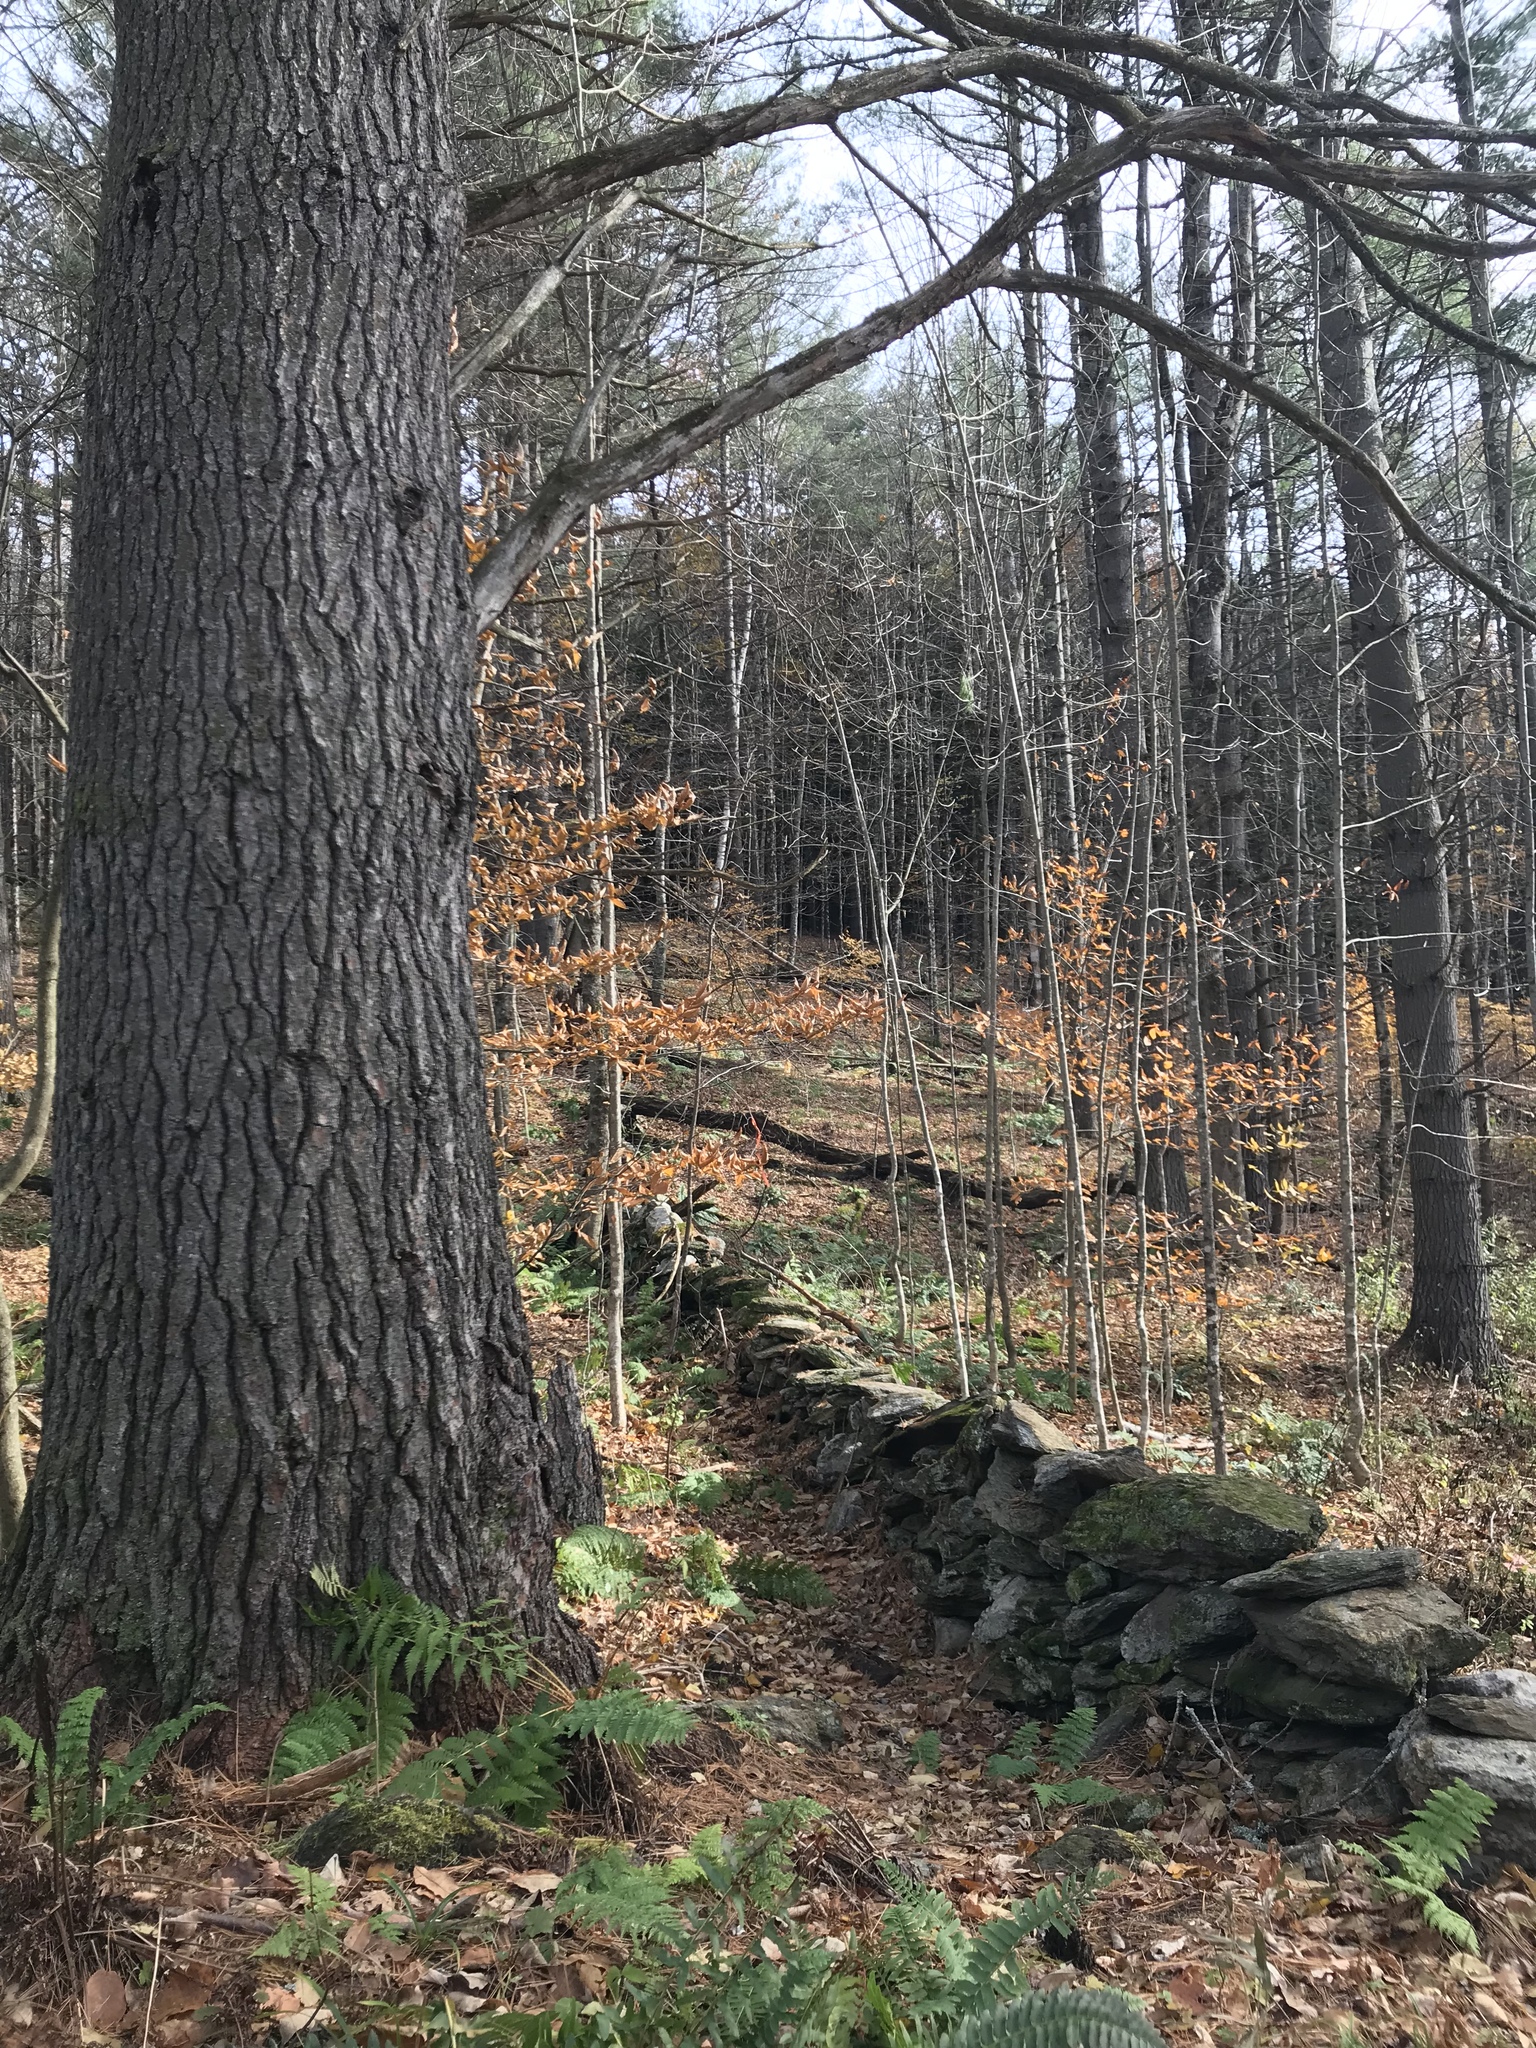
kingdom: Plantae
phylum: Tracheophyta
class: Pinopsida
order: Pinales
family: Pinaceae
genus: Pinus
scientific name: Pinus strobus
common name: Weymouth pine
